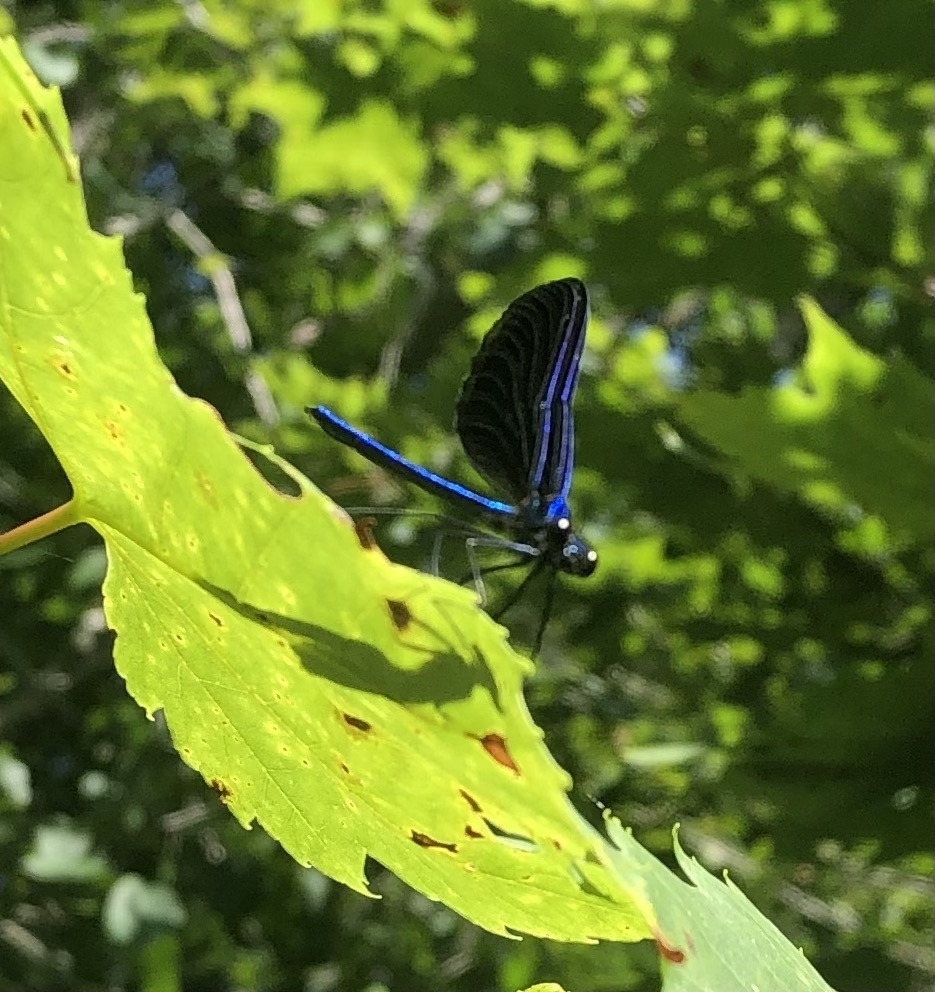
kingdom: Animalia
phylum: Arthropoda
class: Insecta
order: Odonata
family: Calopterygidae
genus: Calopteryx
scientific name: Calopteryx maculata
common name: Ebony jewelwing
